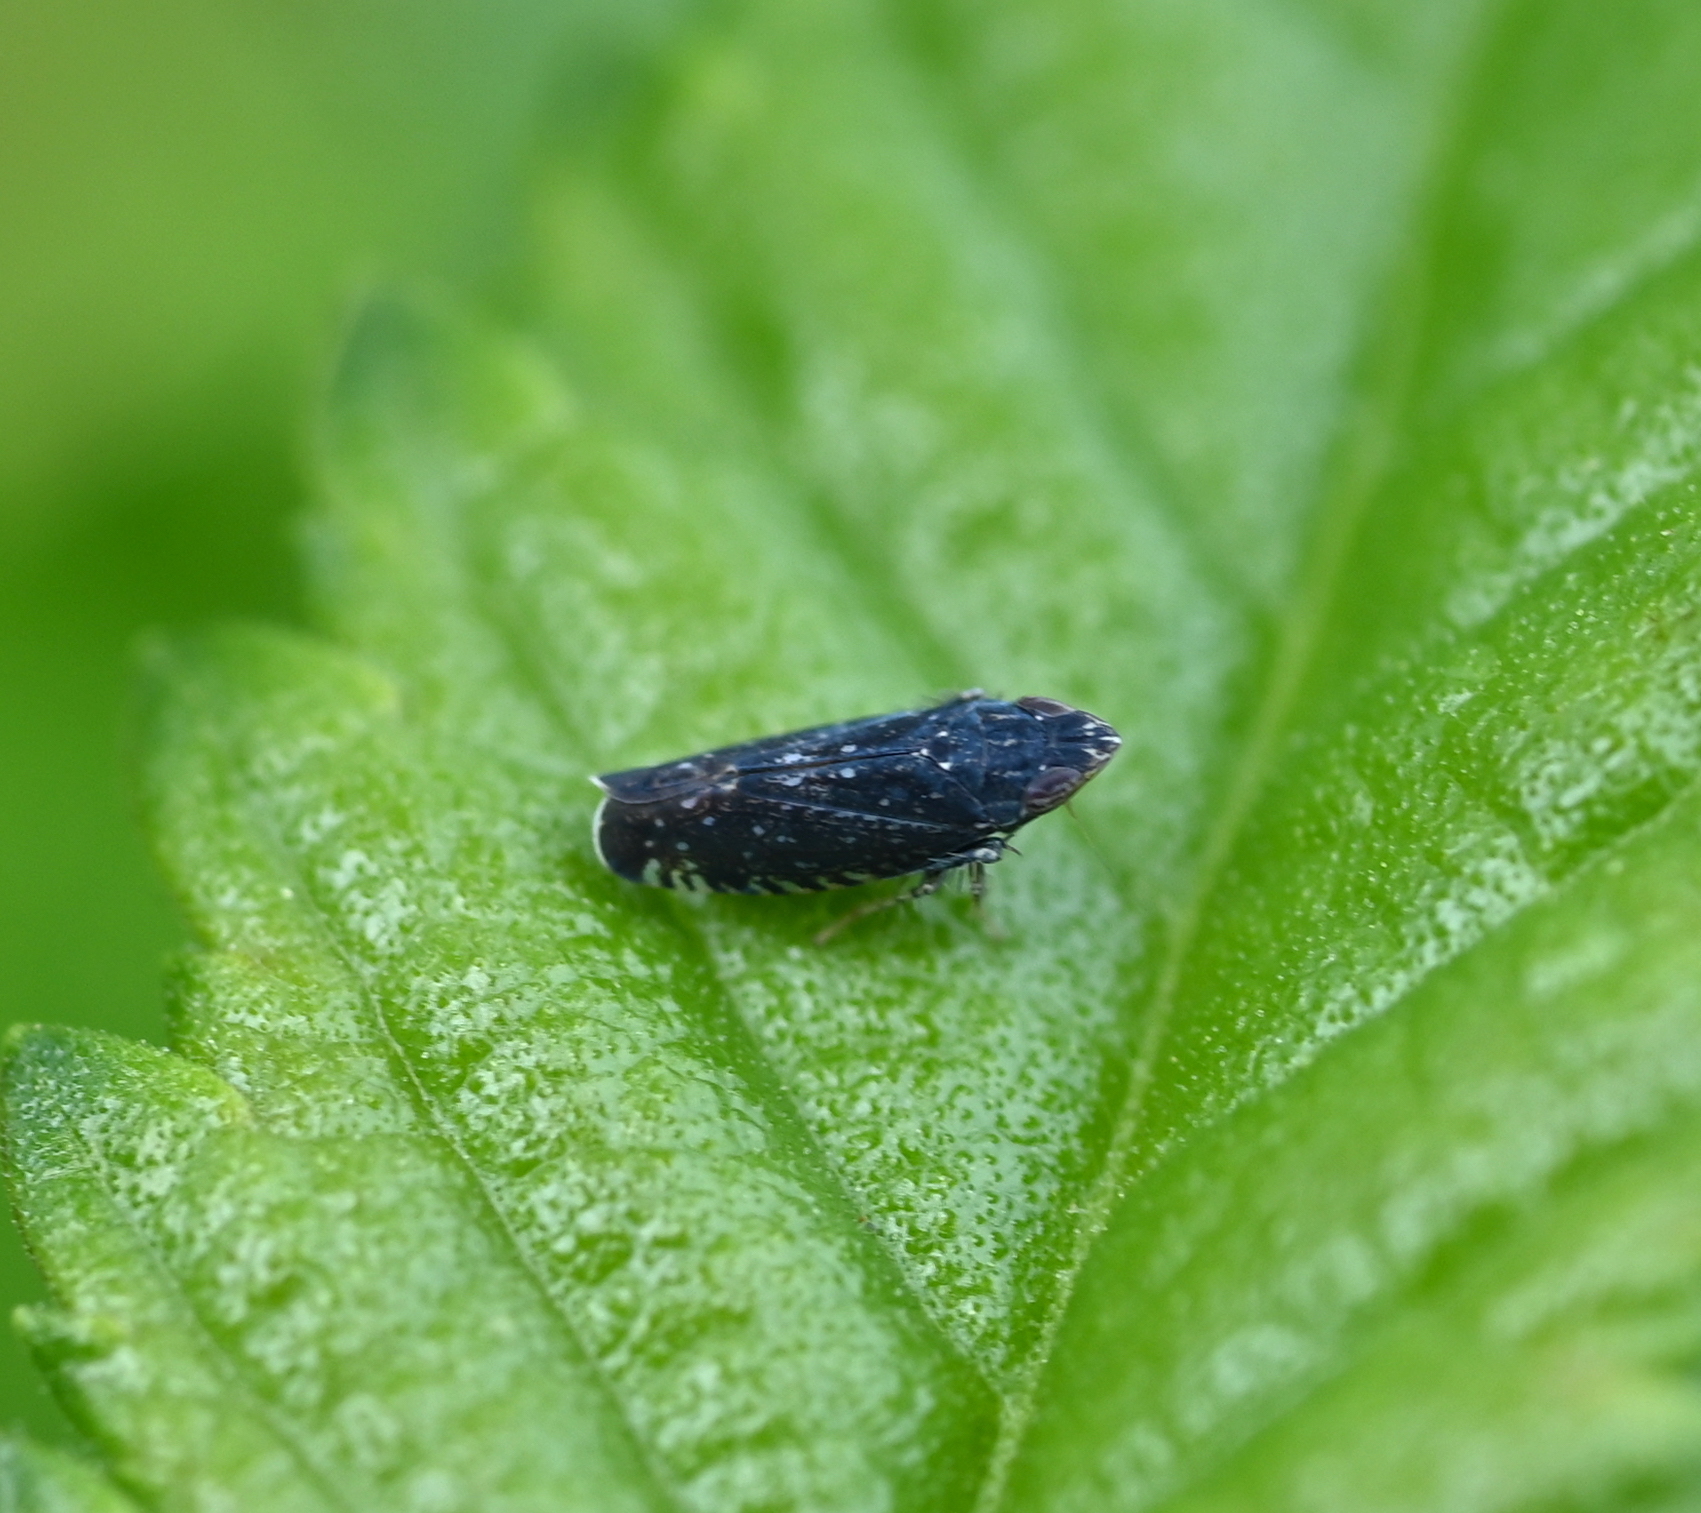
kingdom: Animalia
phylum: Arthropoda
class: Insecta
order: Hemiptera
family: Cicadellidae
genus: Scaphytopius
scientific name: Scaphytopius frontalis
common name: The yellow-faced leafhopper
